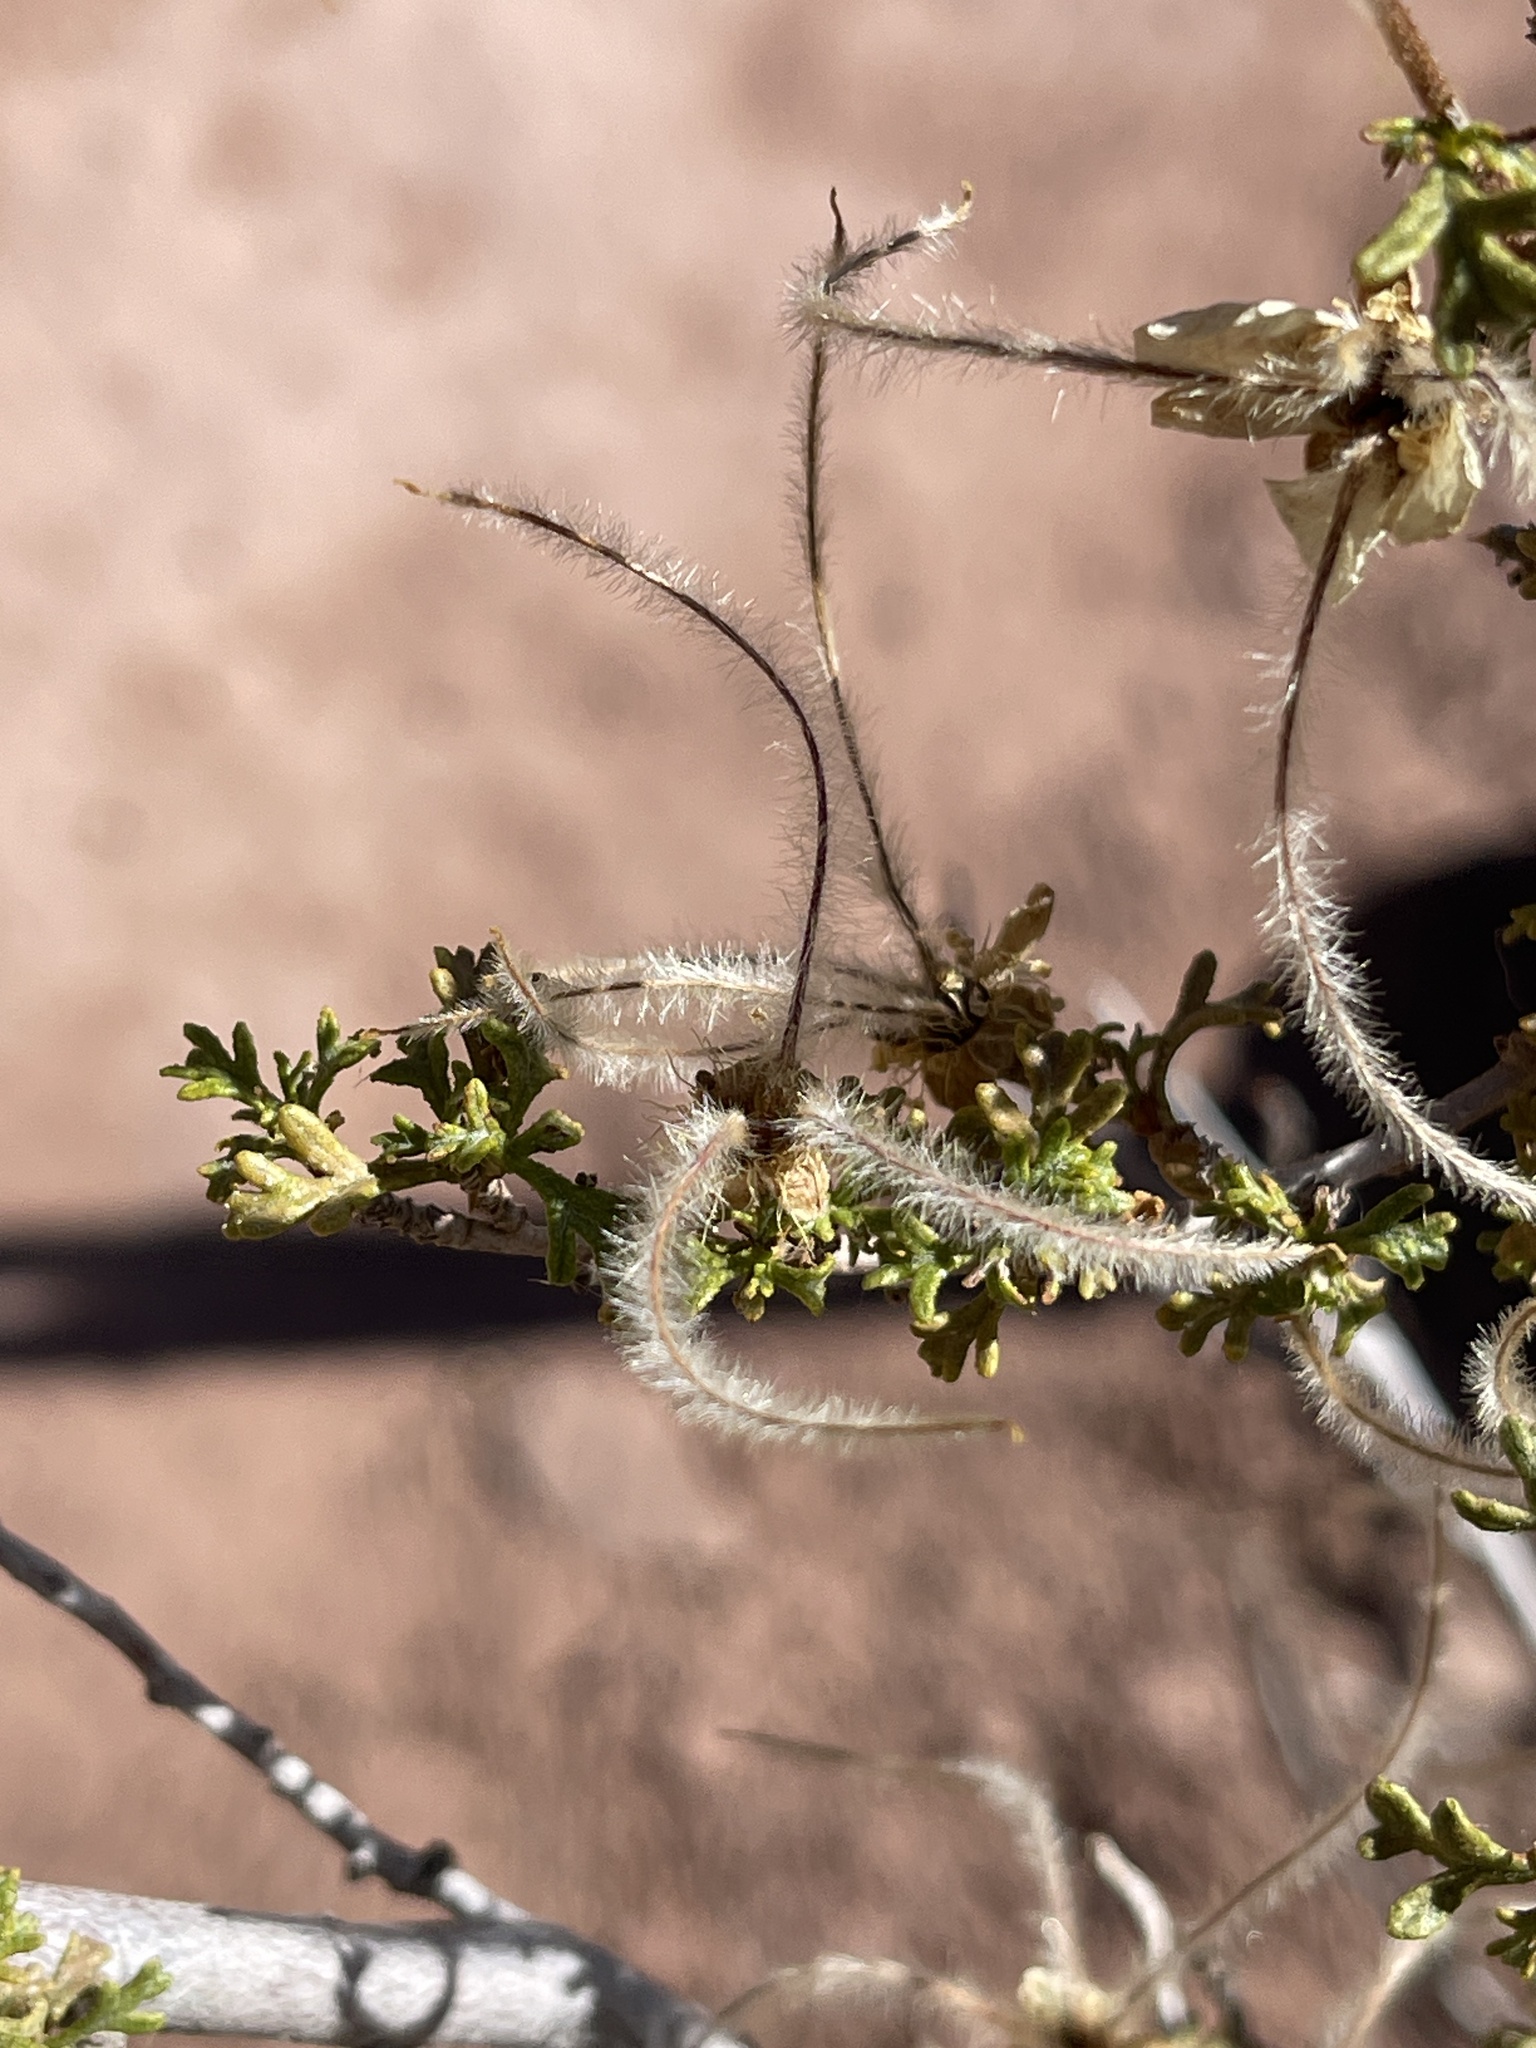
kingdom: Plantae
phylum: Tracheophyta
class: Magnoliopsida
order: Rosales
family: Rosaceae
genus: Purshia
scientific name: Purshia stansburiana
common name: Stansbury's cliffrose
